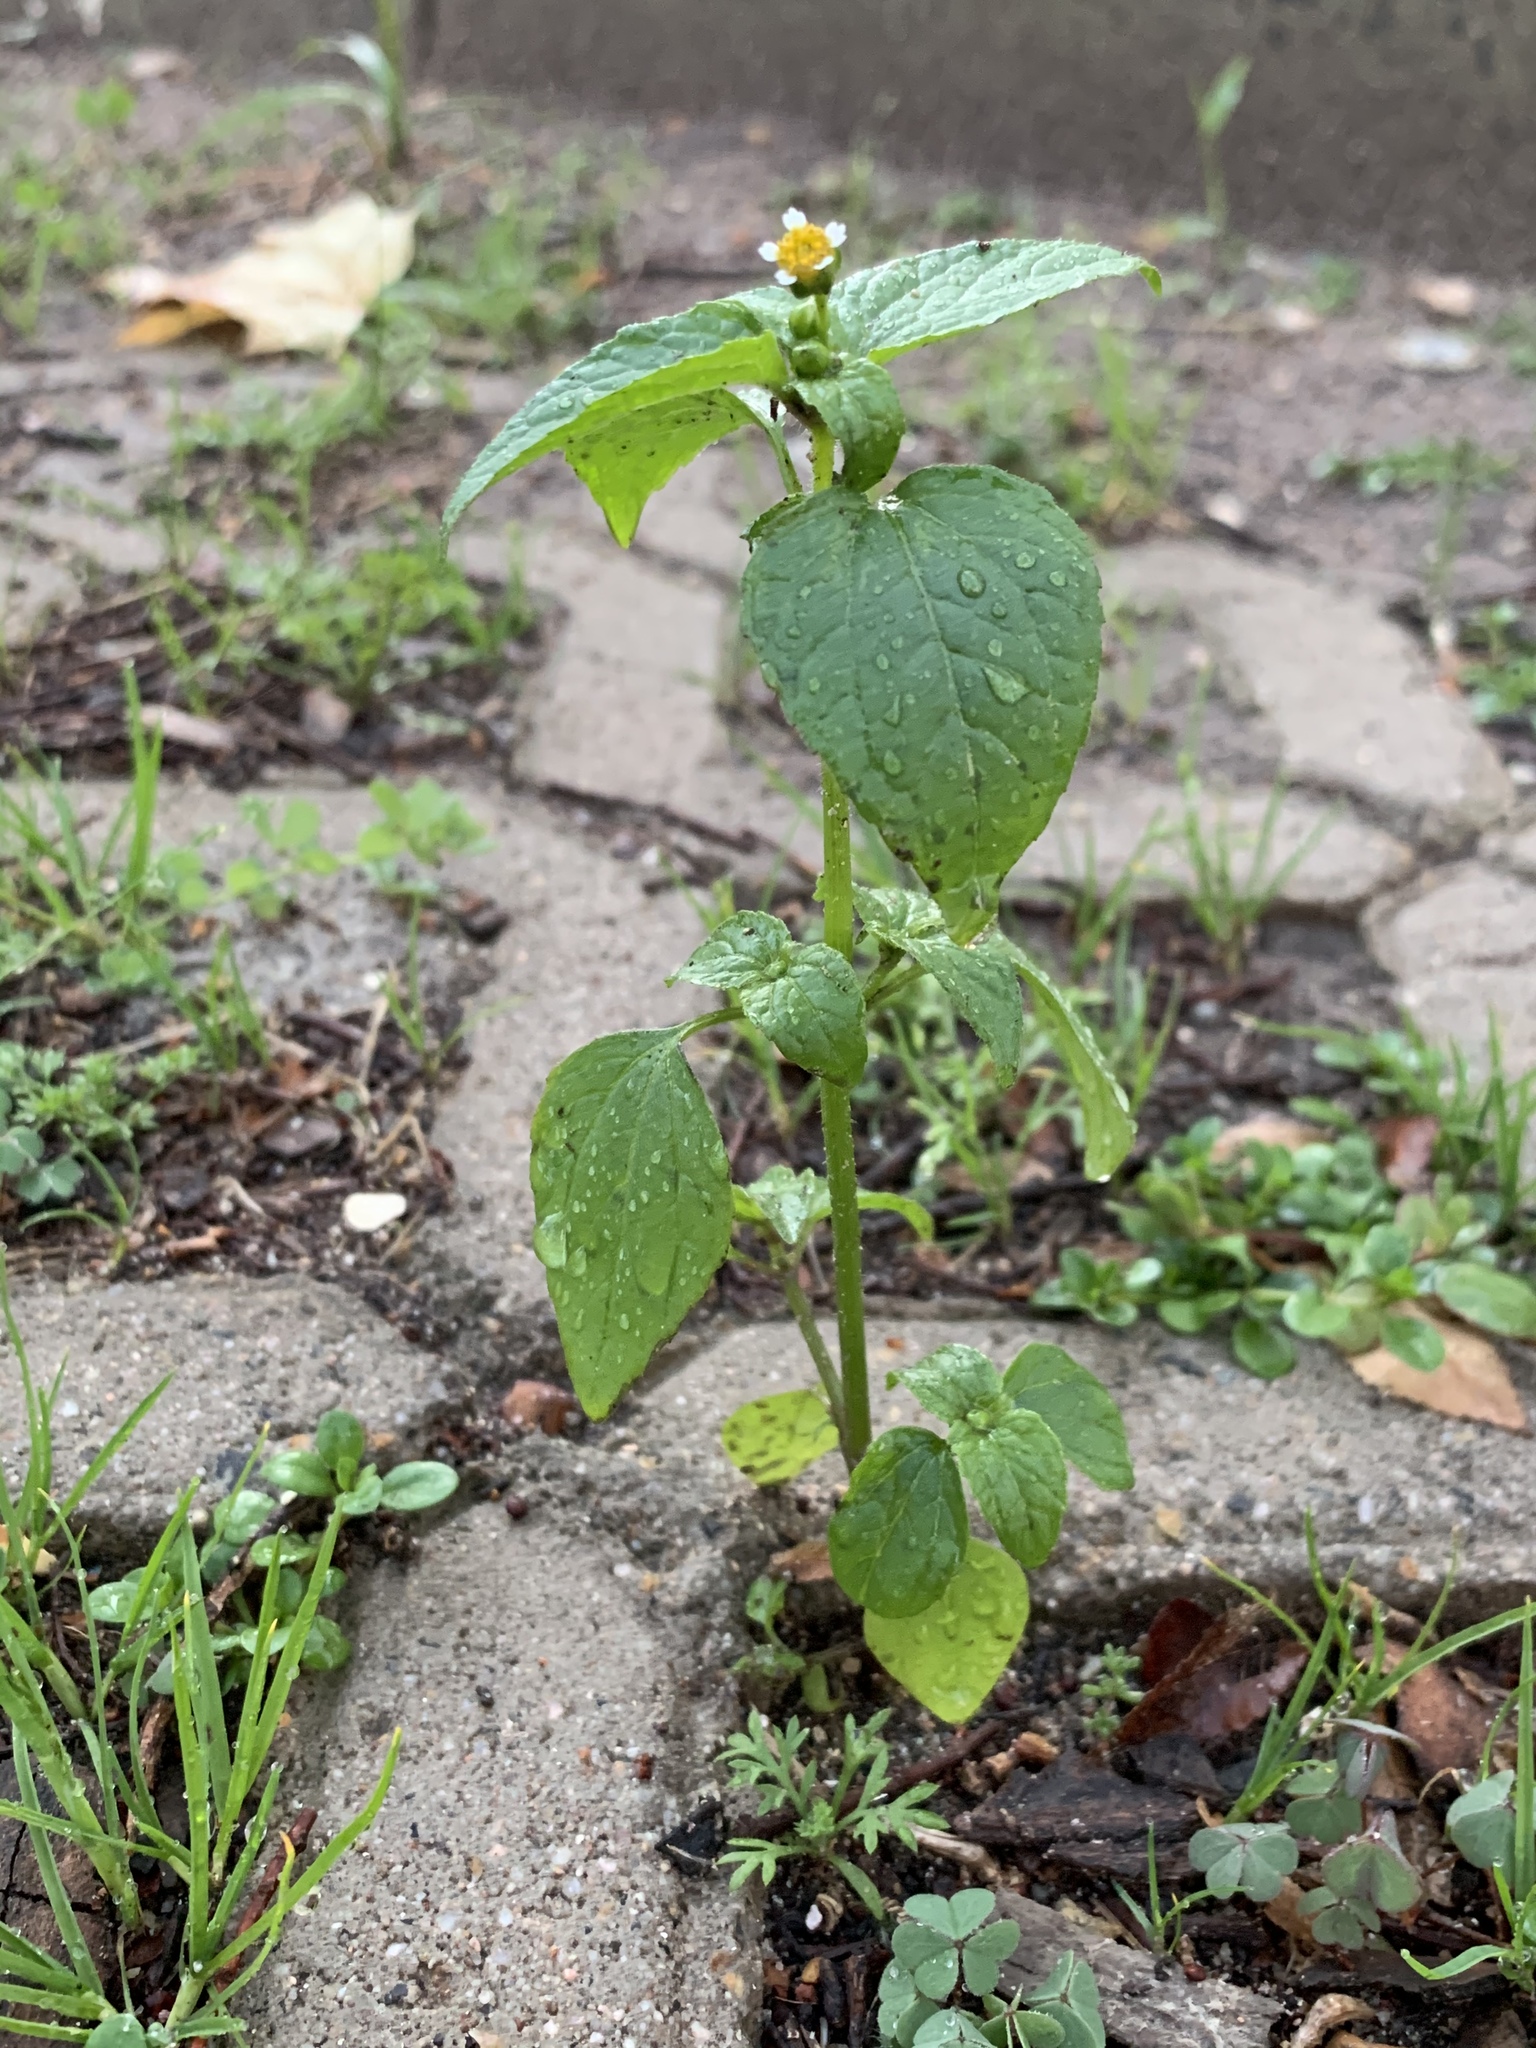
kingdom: Plantae
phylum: Tracheophyta
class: Magnoliopsida
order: Asterales
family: Asteraceae
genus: Galinsoga
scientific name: Galinsoga parviflora
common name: Gallant soldier
